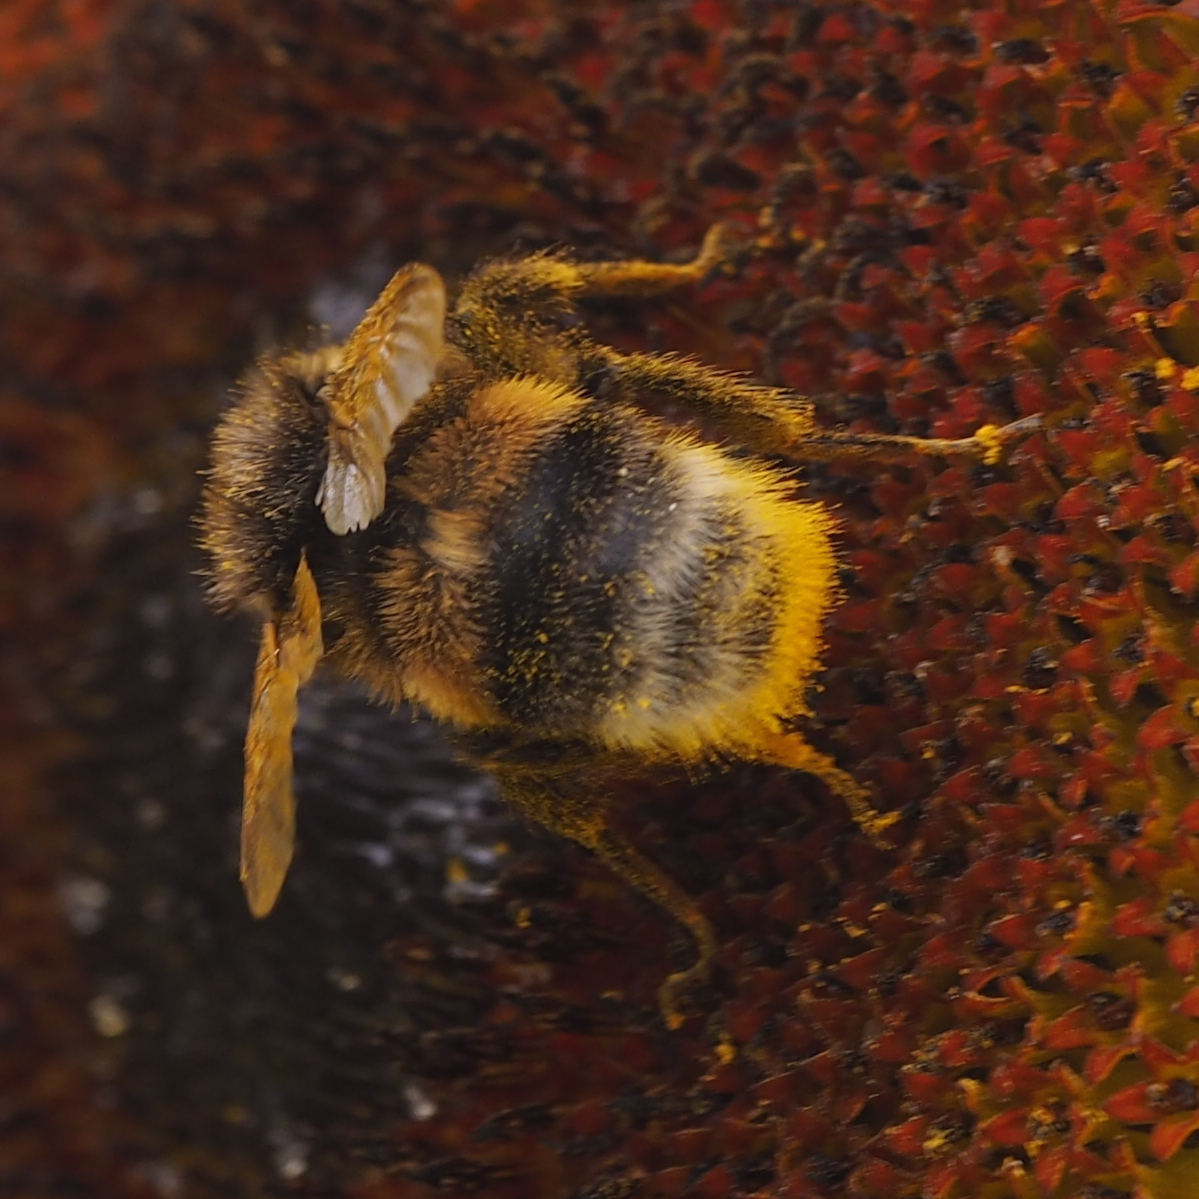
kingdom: Animalia
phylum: Arthropoda
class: Insecta
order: Hymenoptera
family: Apidae
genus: Bombus
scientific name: Bombus lucorum
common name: White-tailed bumblebee
